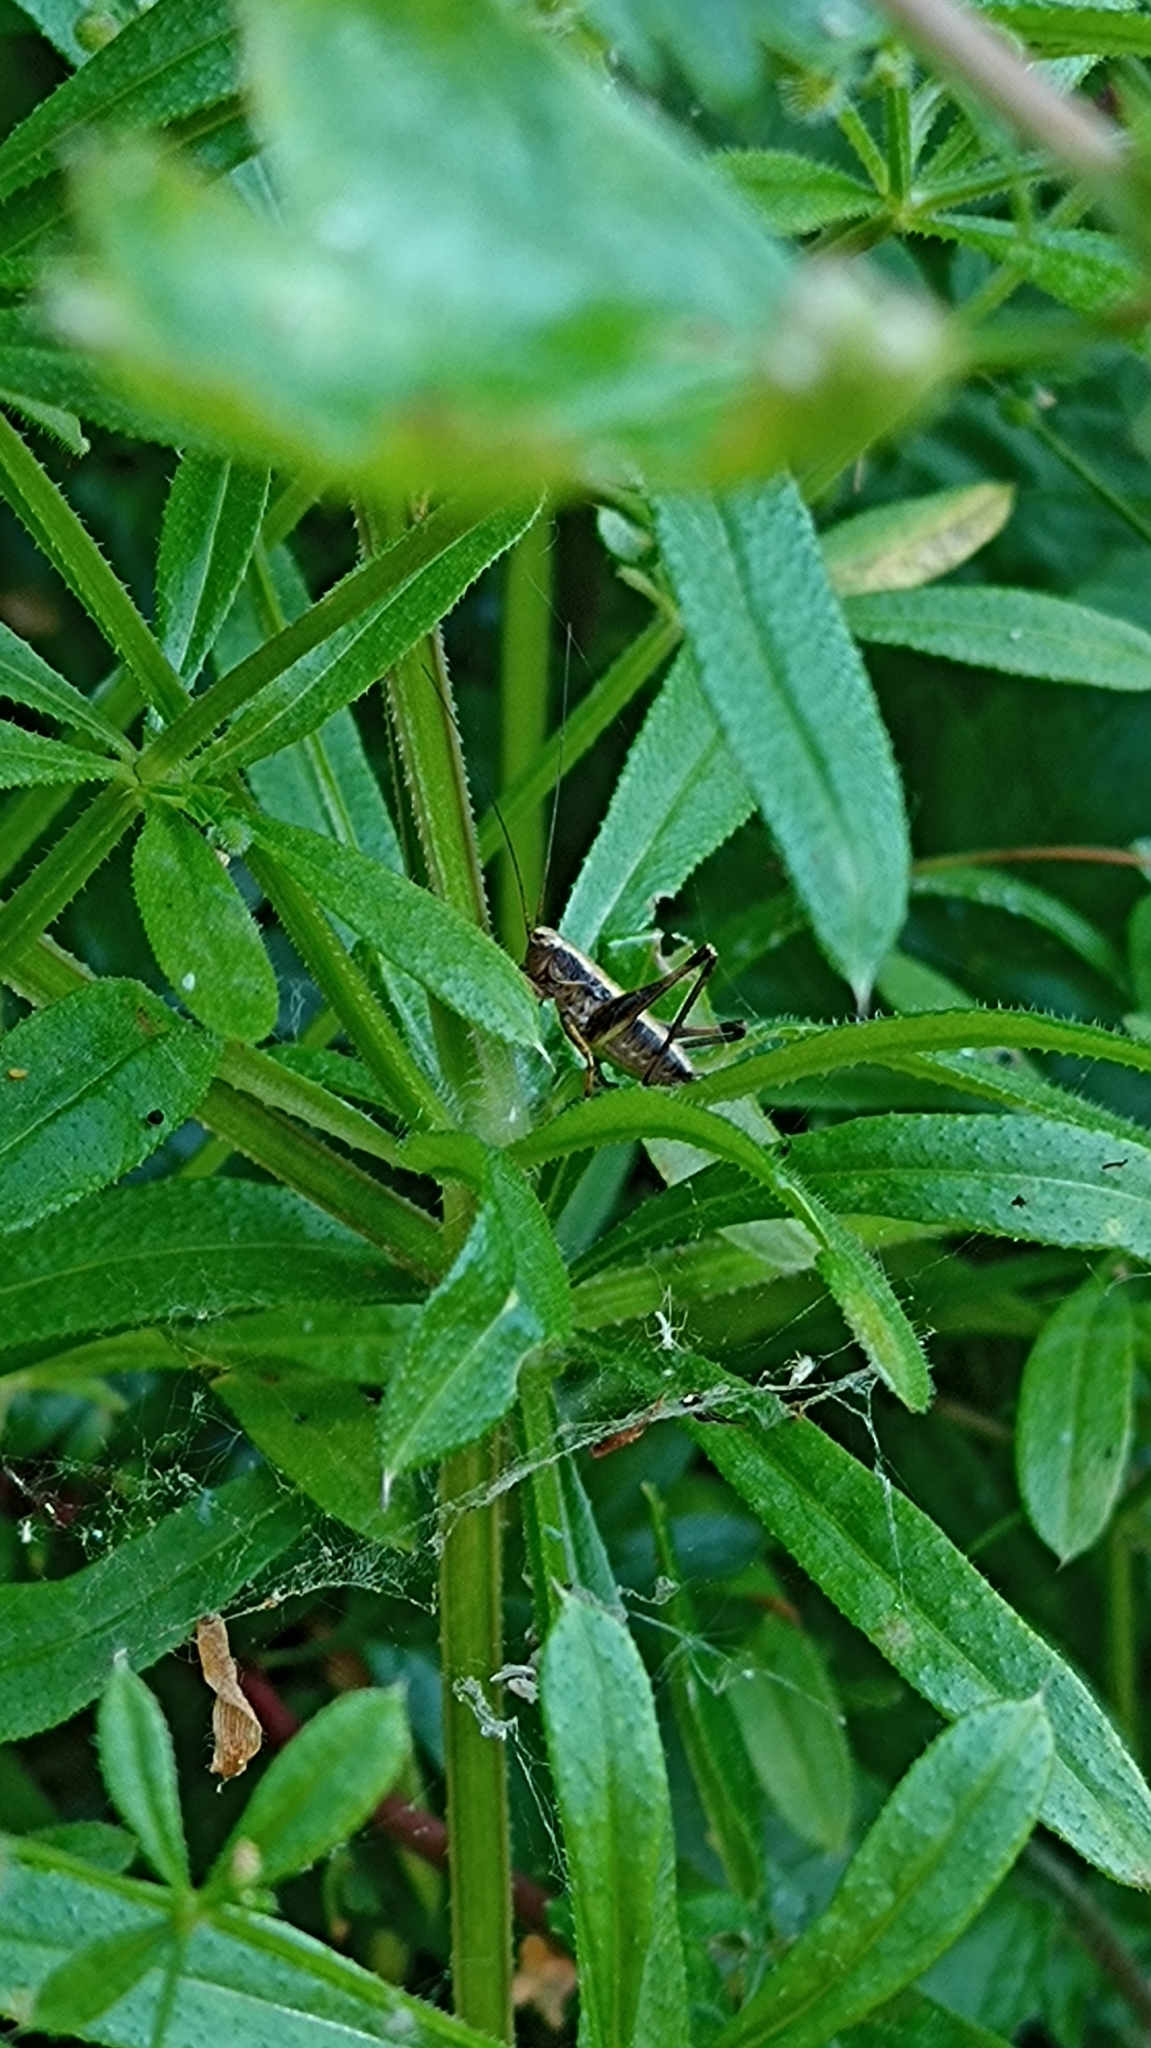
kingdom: Animalia
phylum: Arthropoda
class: Insecta
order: Orthoptera
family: Tettigoniidae
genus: Pholidoptera
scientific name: Pholidoptera griseoaptera
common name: Dark bush-cricket
